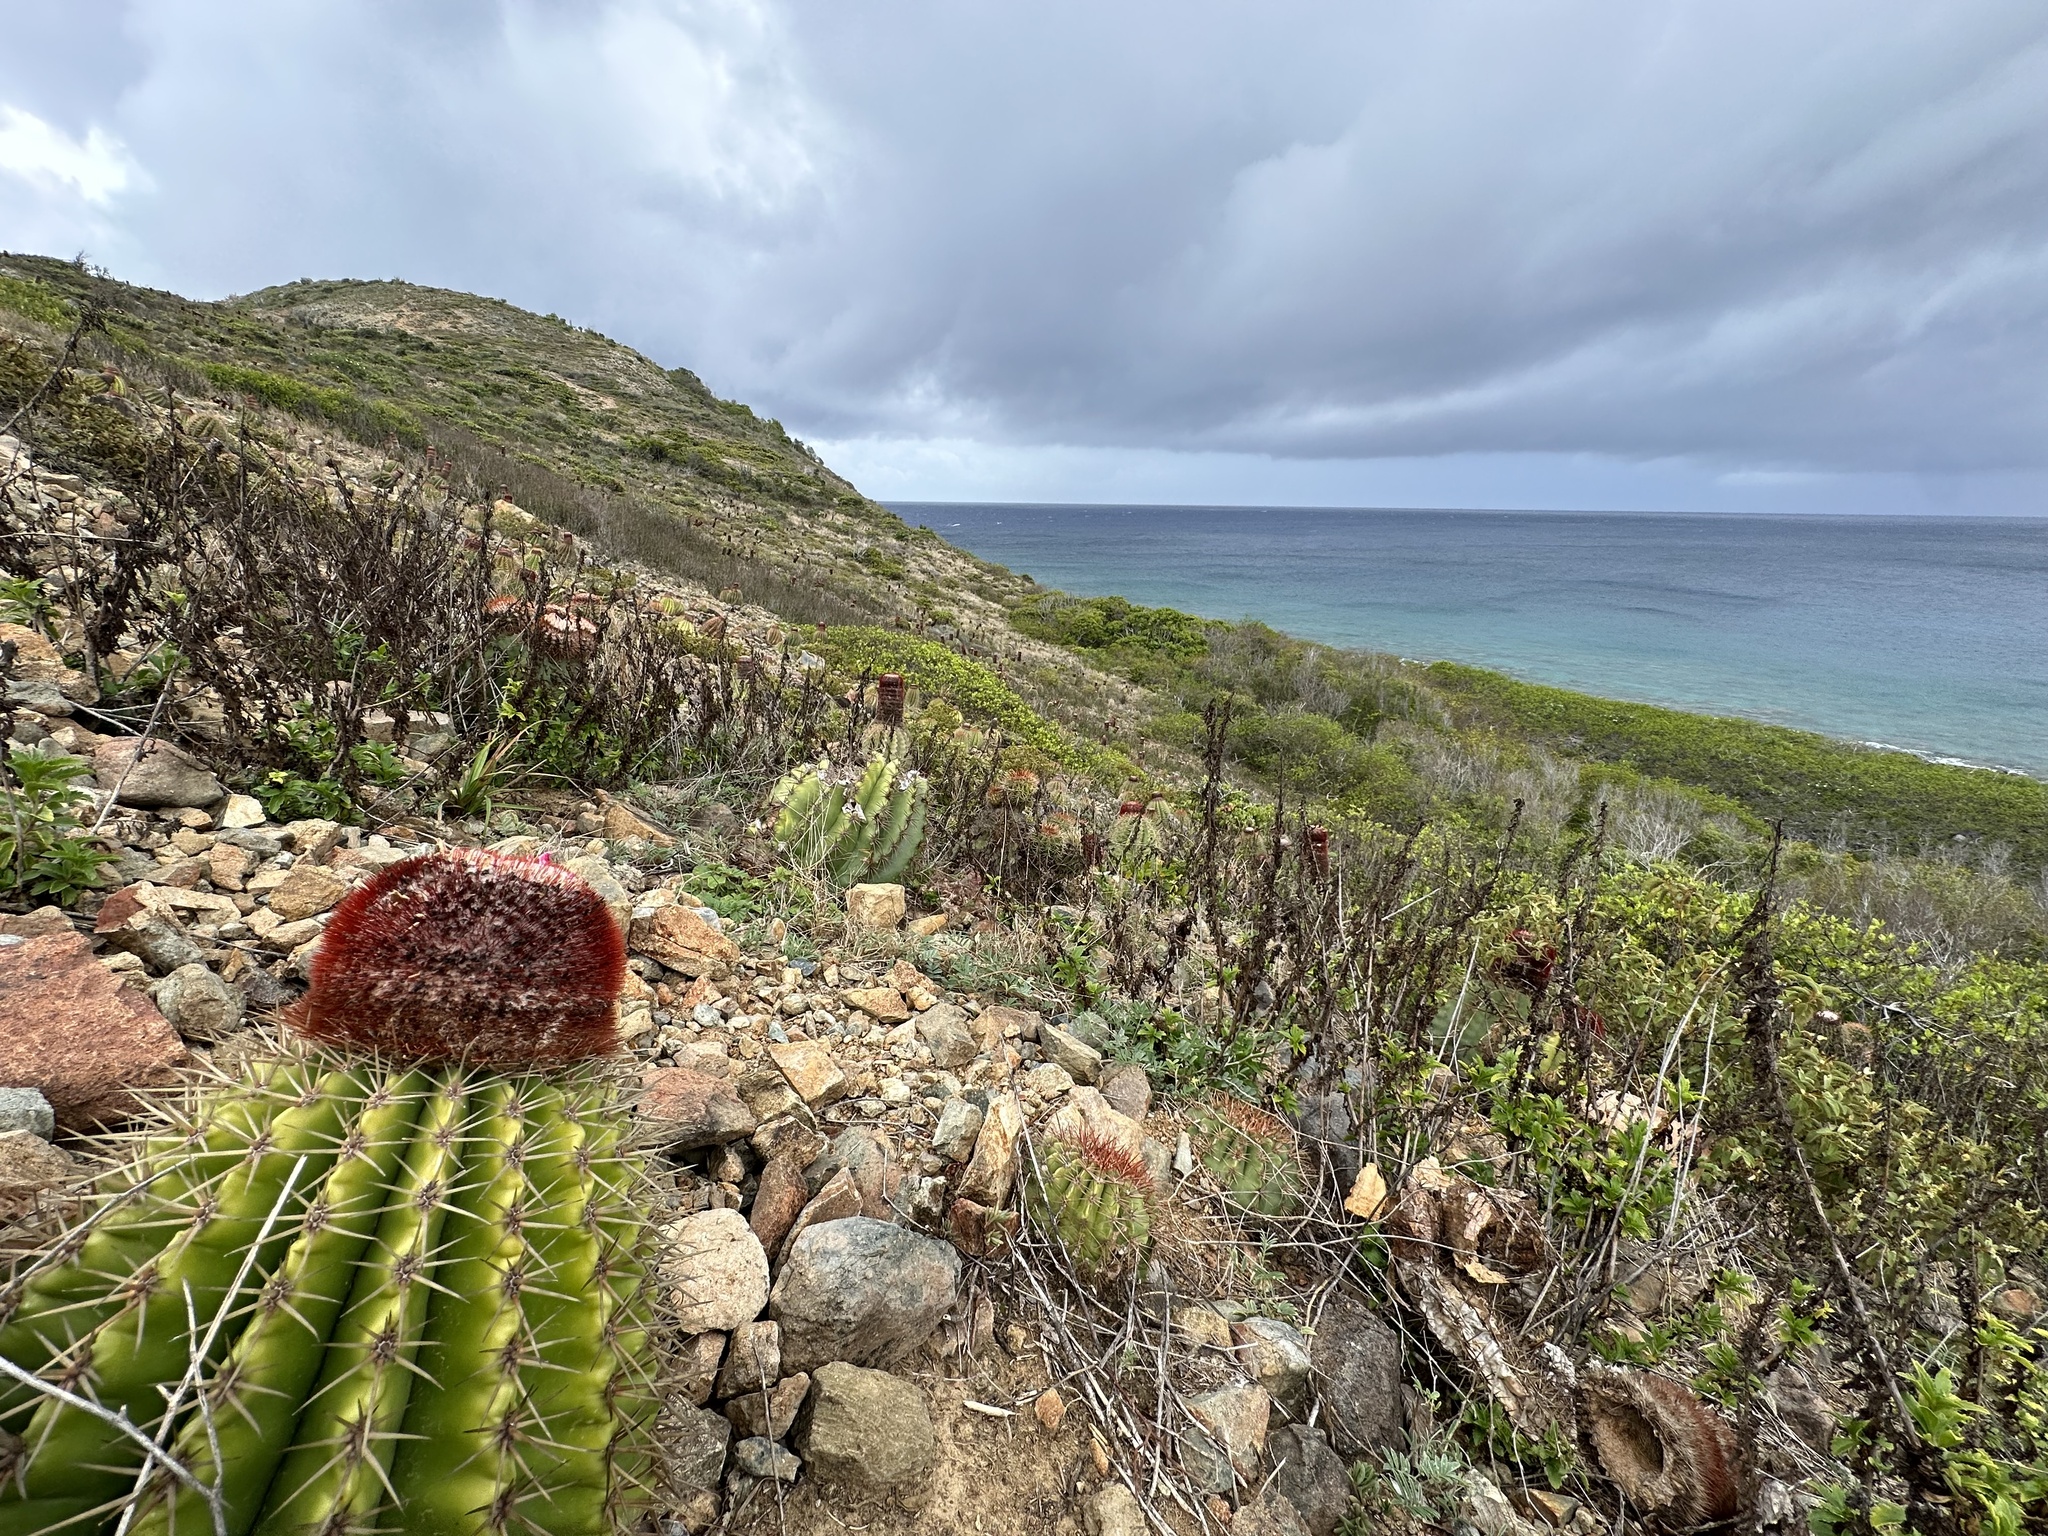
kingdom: Plantae
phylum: Tracheophyta
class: Magnoliopsida
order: Caryophyllales
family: Cactaceae
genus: Melocactus
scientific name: Melocactus intortus
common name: Barrel cactus
